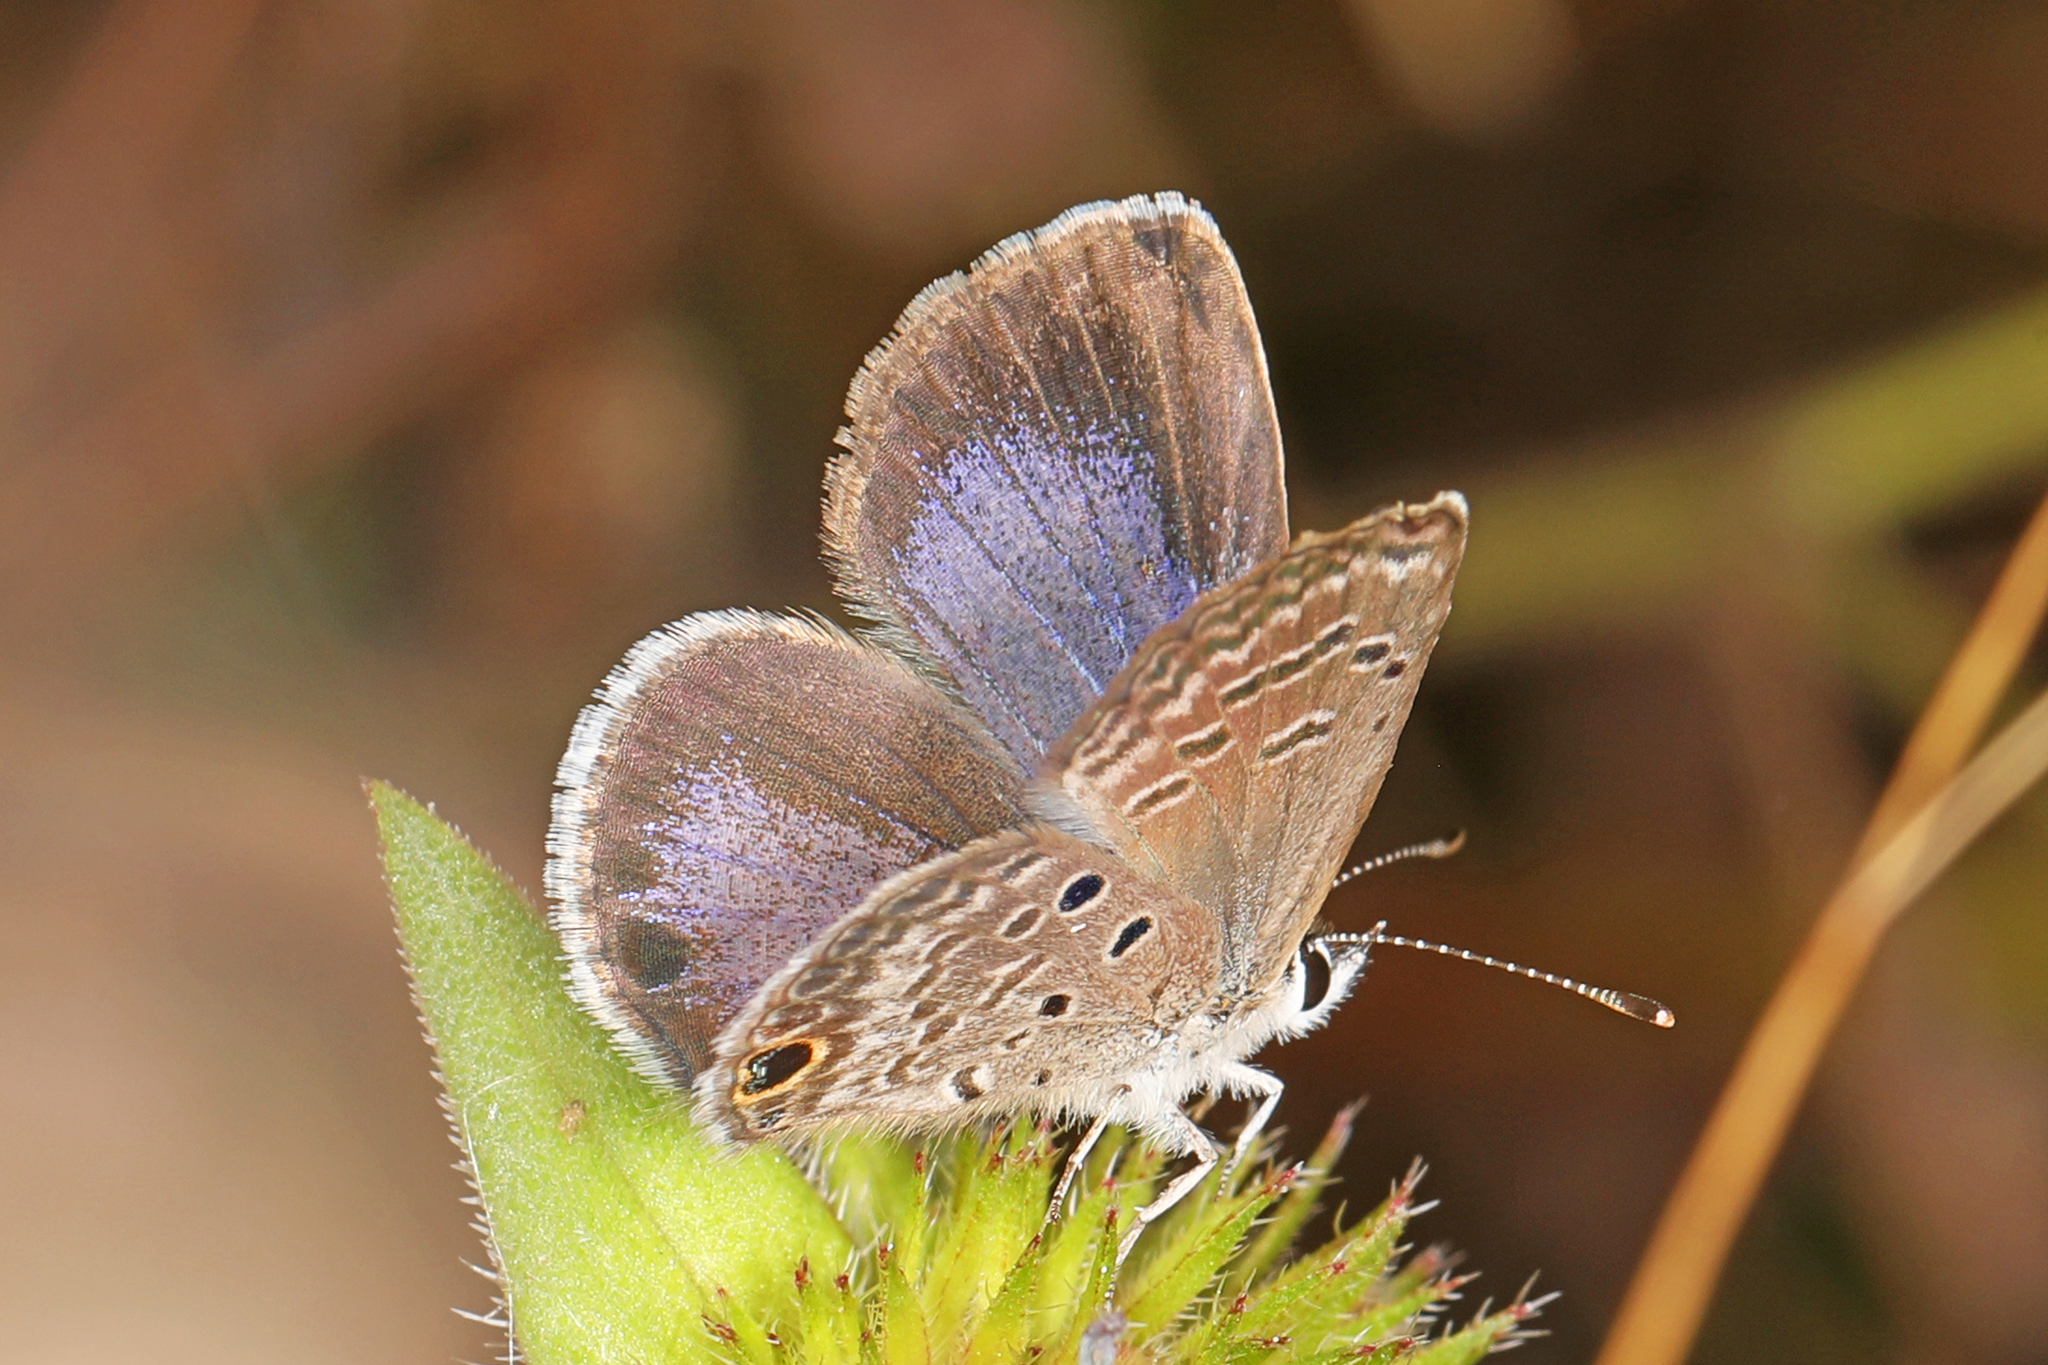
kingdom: Animalia
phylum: Arthropoda
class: Insecta
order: Lepidoptera
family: Lycaenidae
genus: Hemiargus
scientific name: Hemiargus ceraunus
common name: Ceraunus blue
